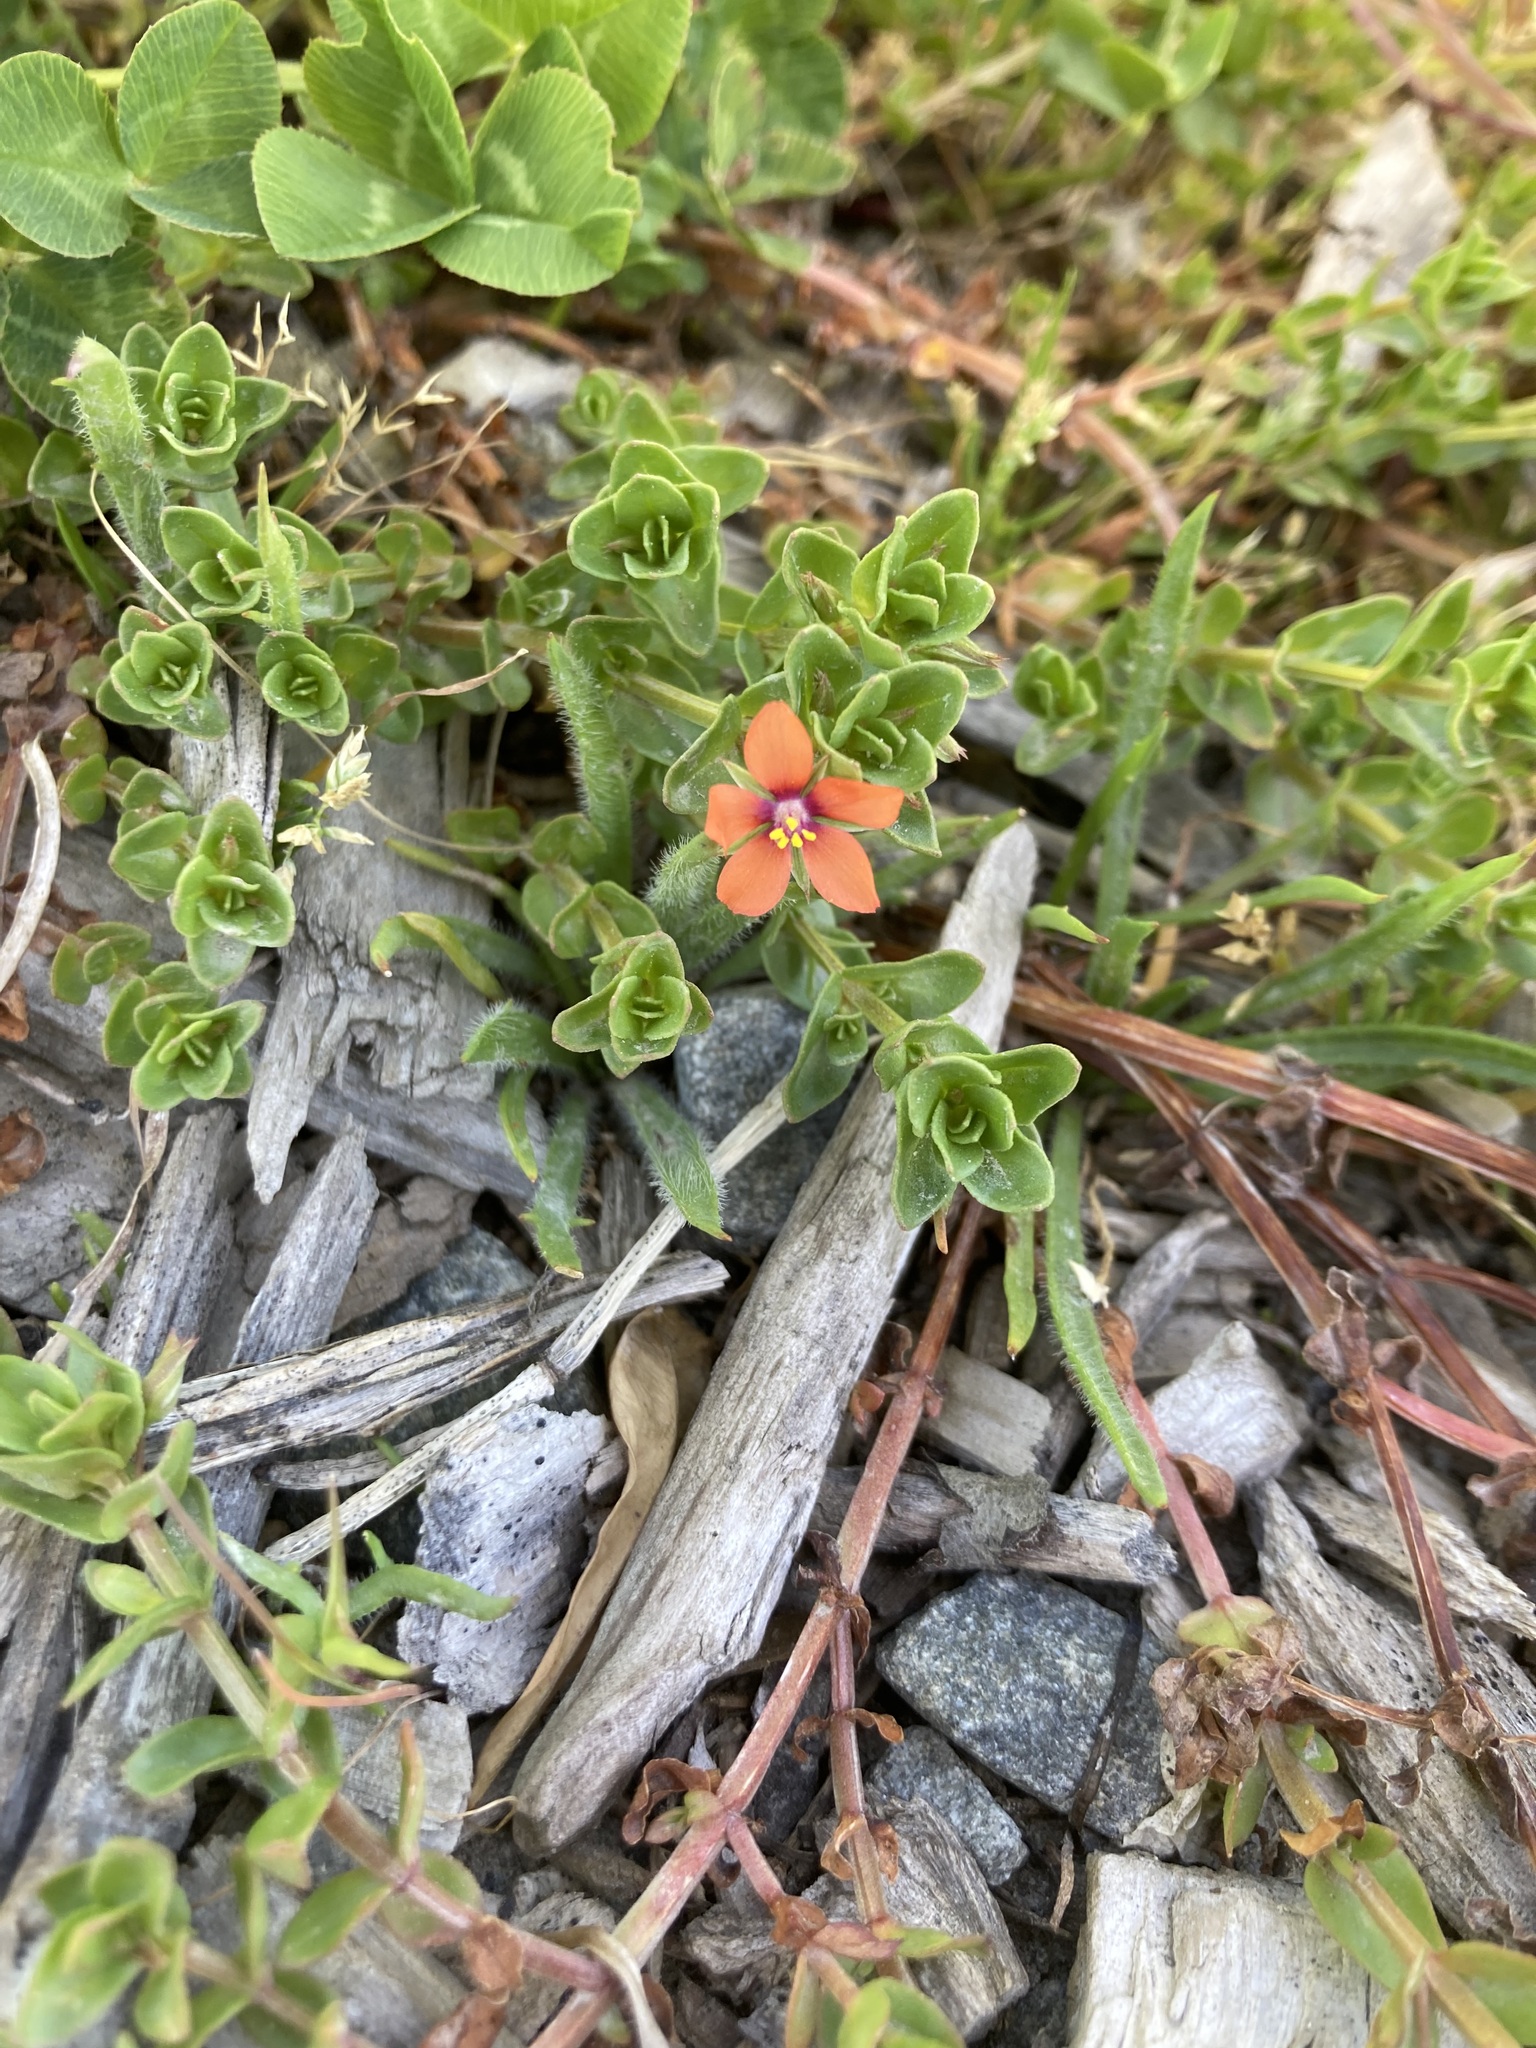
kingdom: Plantae
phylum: Tracheophyta
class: Magnoliopsida
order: Ericales
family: Primulaceae
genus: Lysimachia
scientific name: Lysimachia arvensis
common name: Scarlet pimpernel
